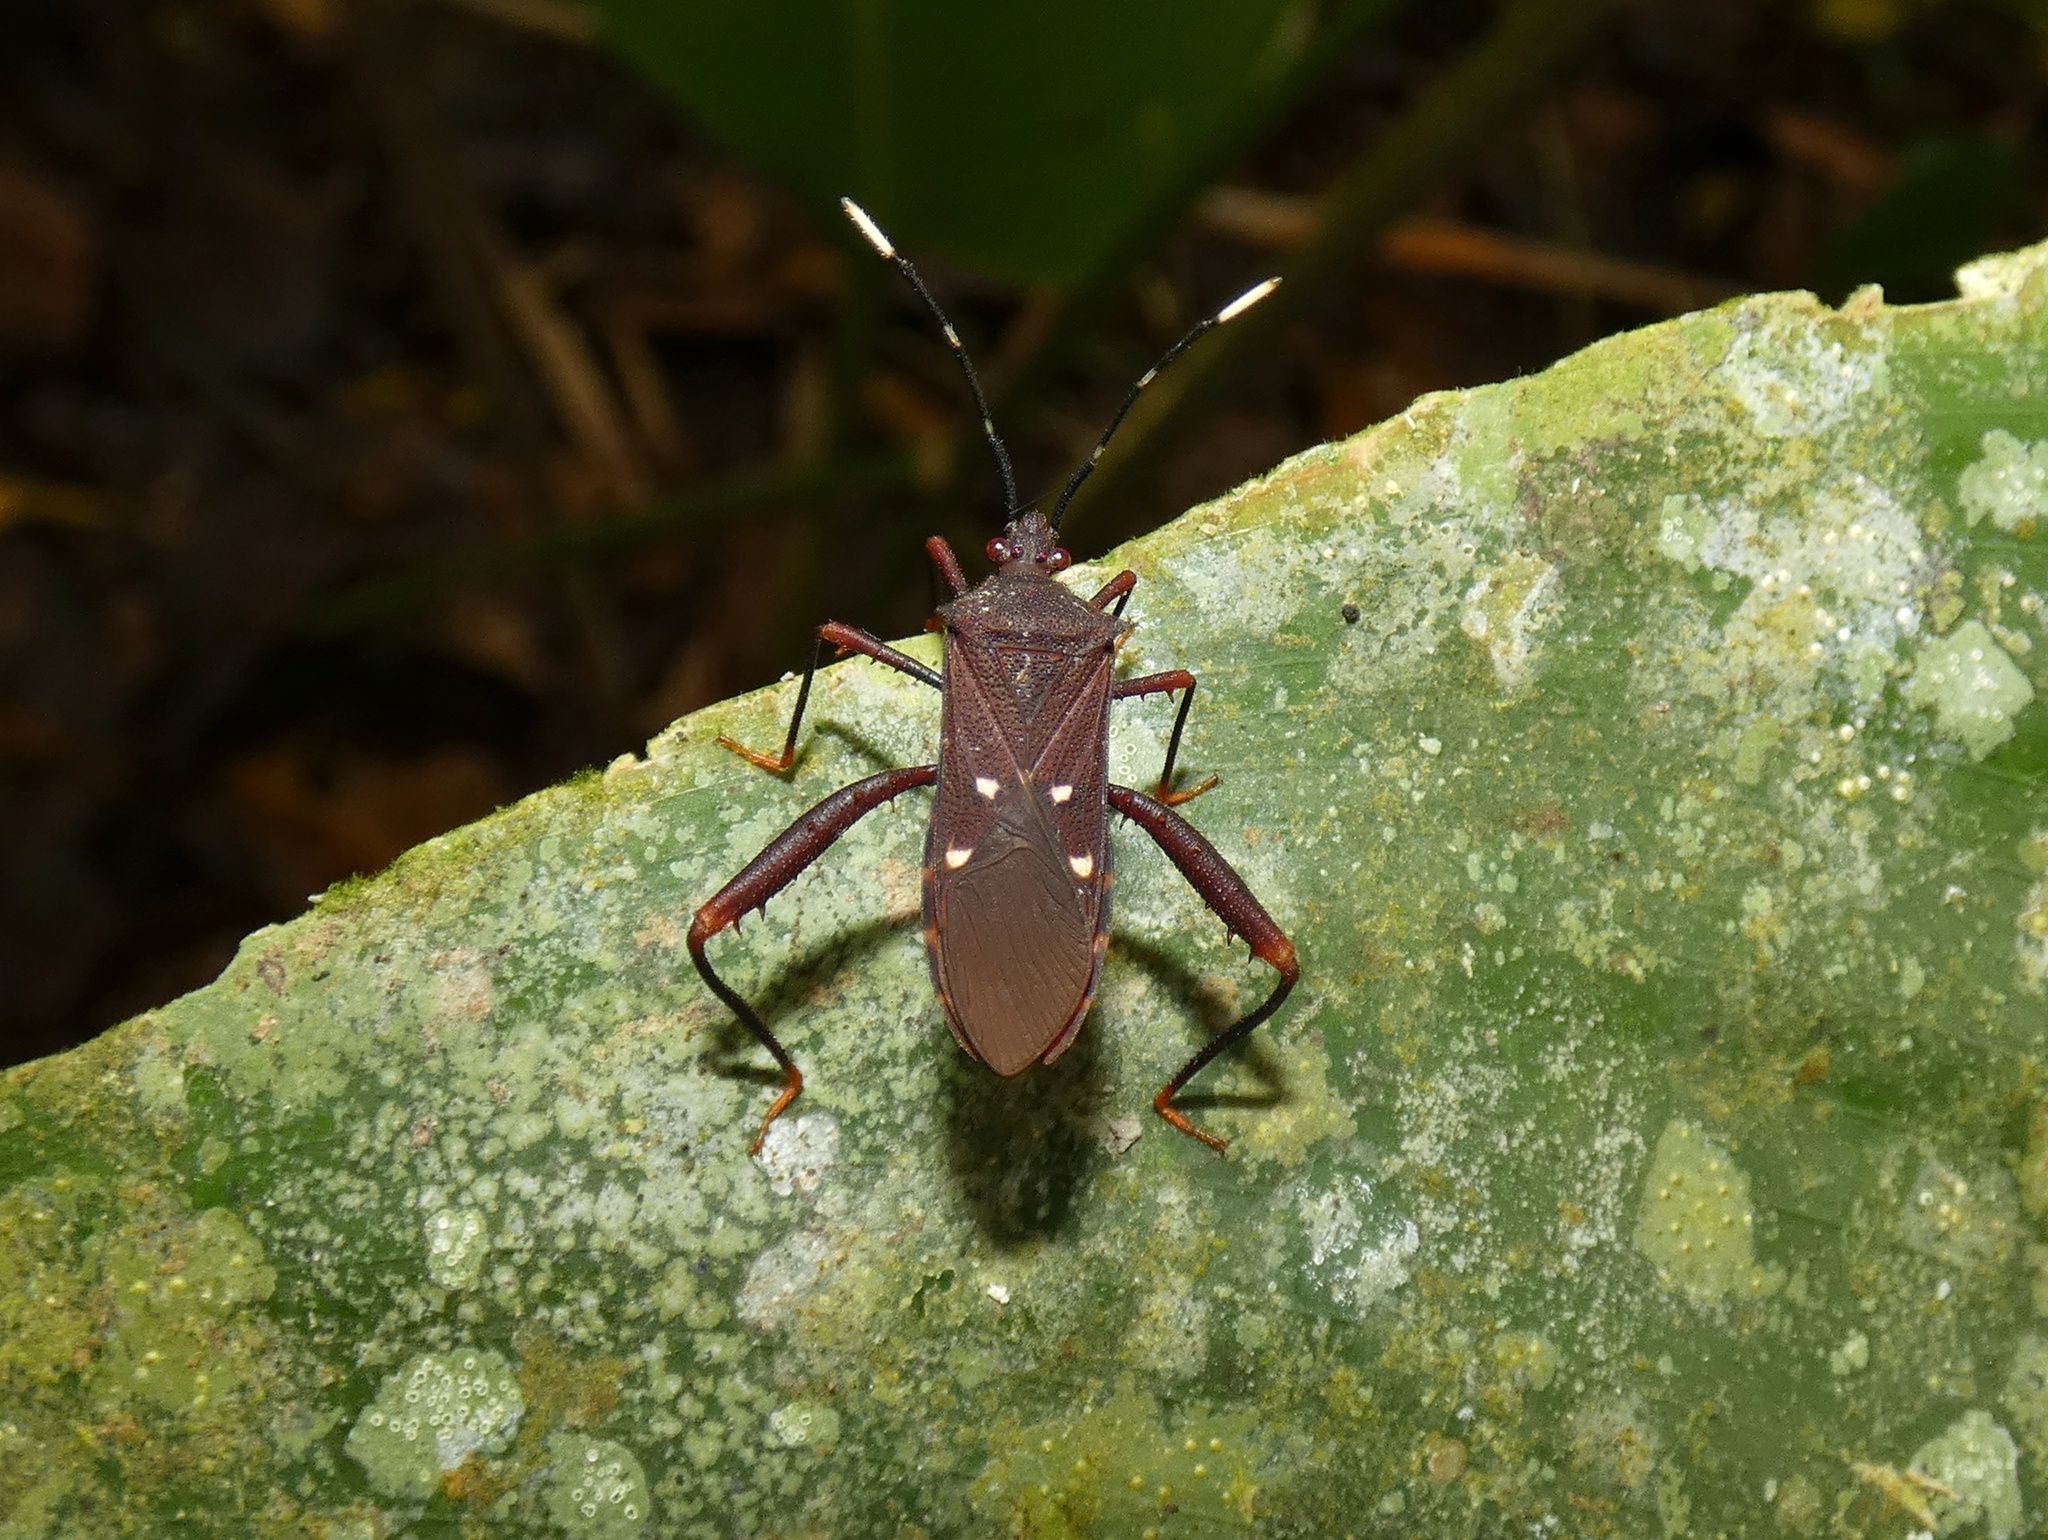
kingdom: Animalia
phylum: Arthropoda
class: Insecta
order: Hemiptera
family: Coreidae
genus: Leptoscelis
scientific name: Leptoscelis quadrisignatus
